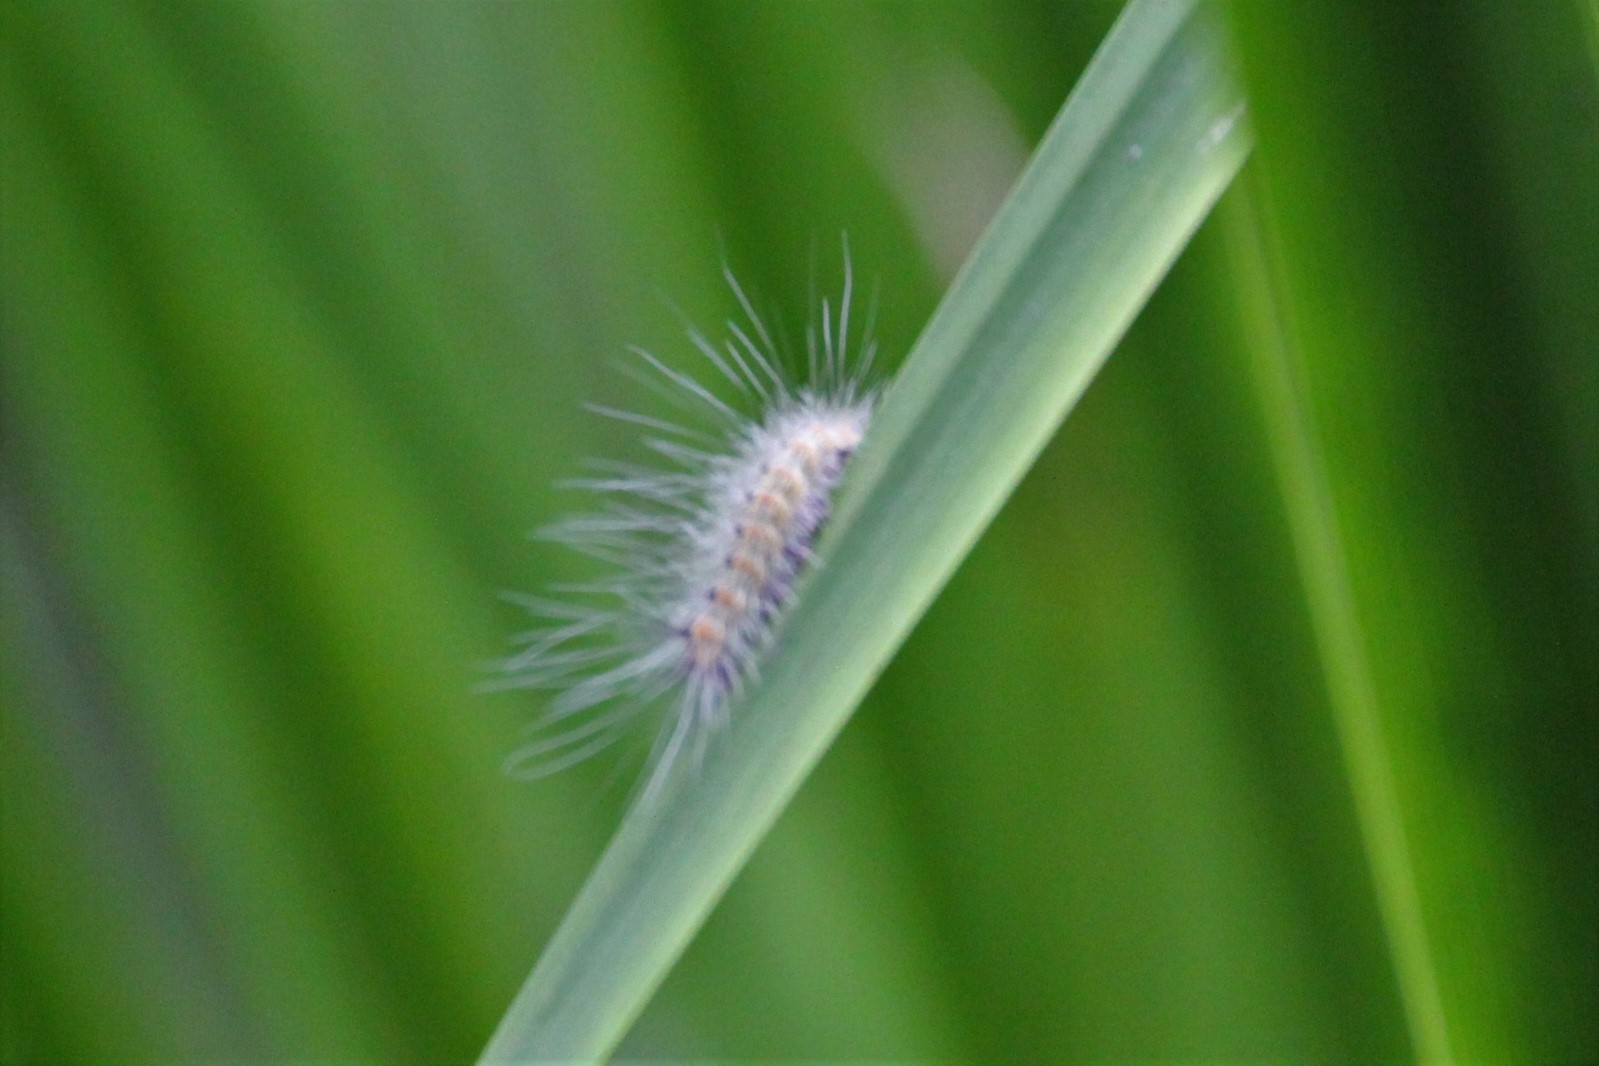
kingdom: Animalia
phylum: Arthropoda
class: Insecta
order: Lepidoptera
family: Erebidae
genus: Hyphantria
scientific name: Hyphantria cunea
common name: American white moth
